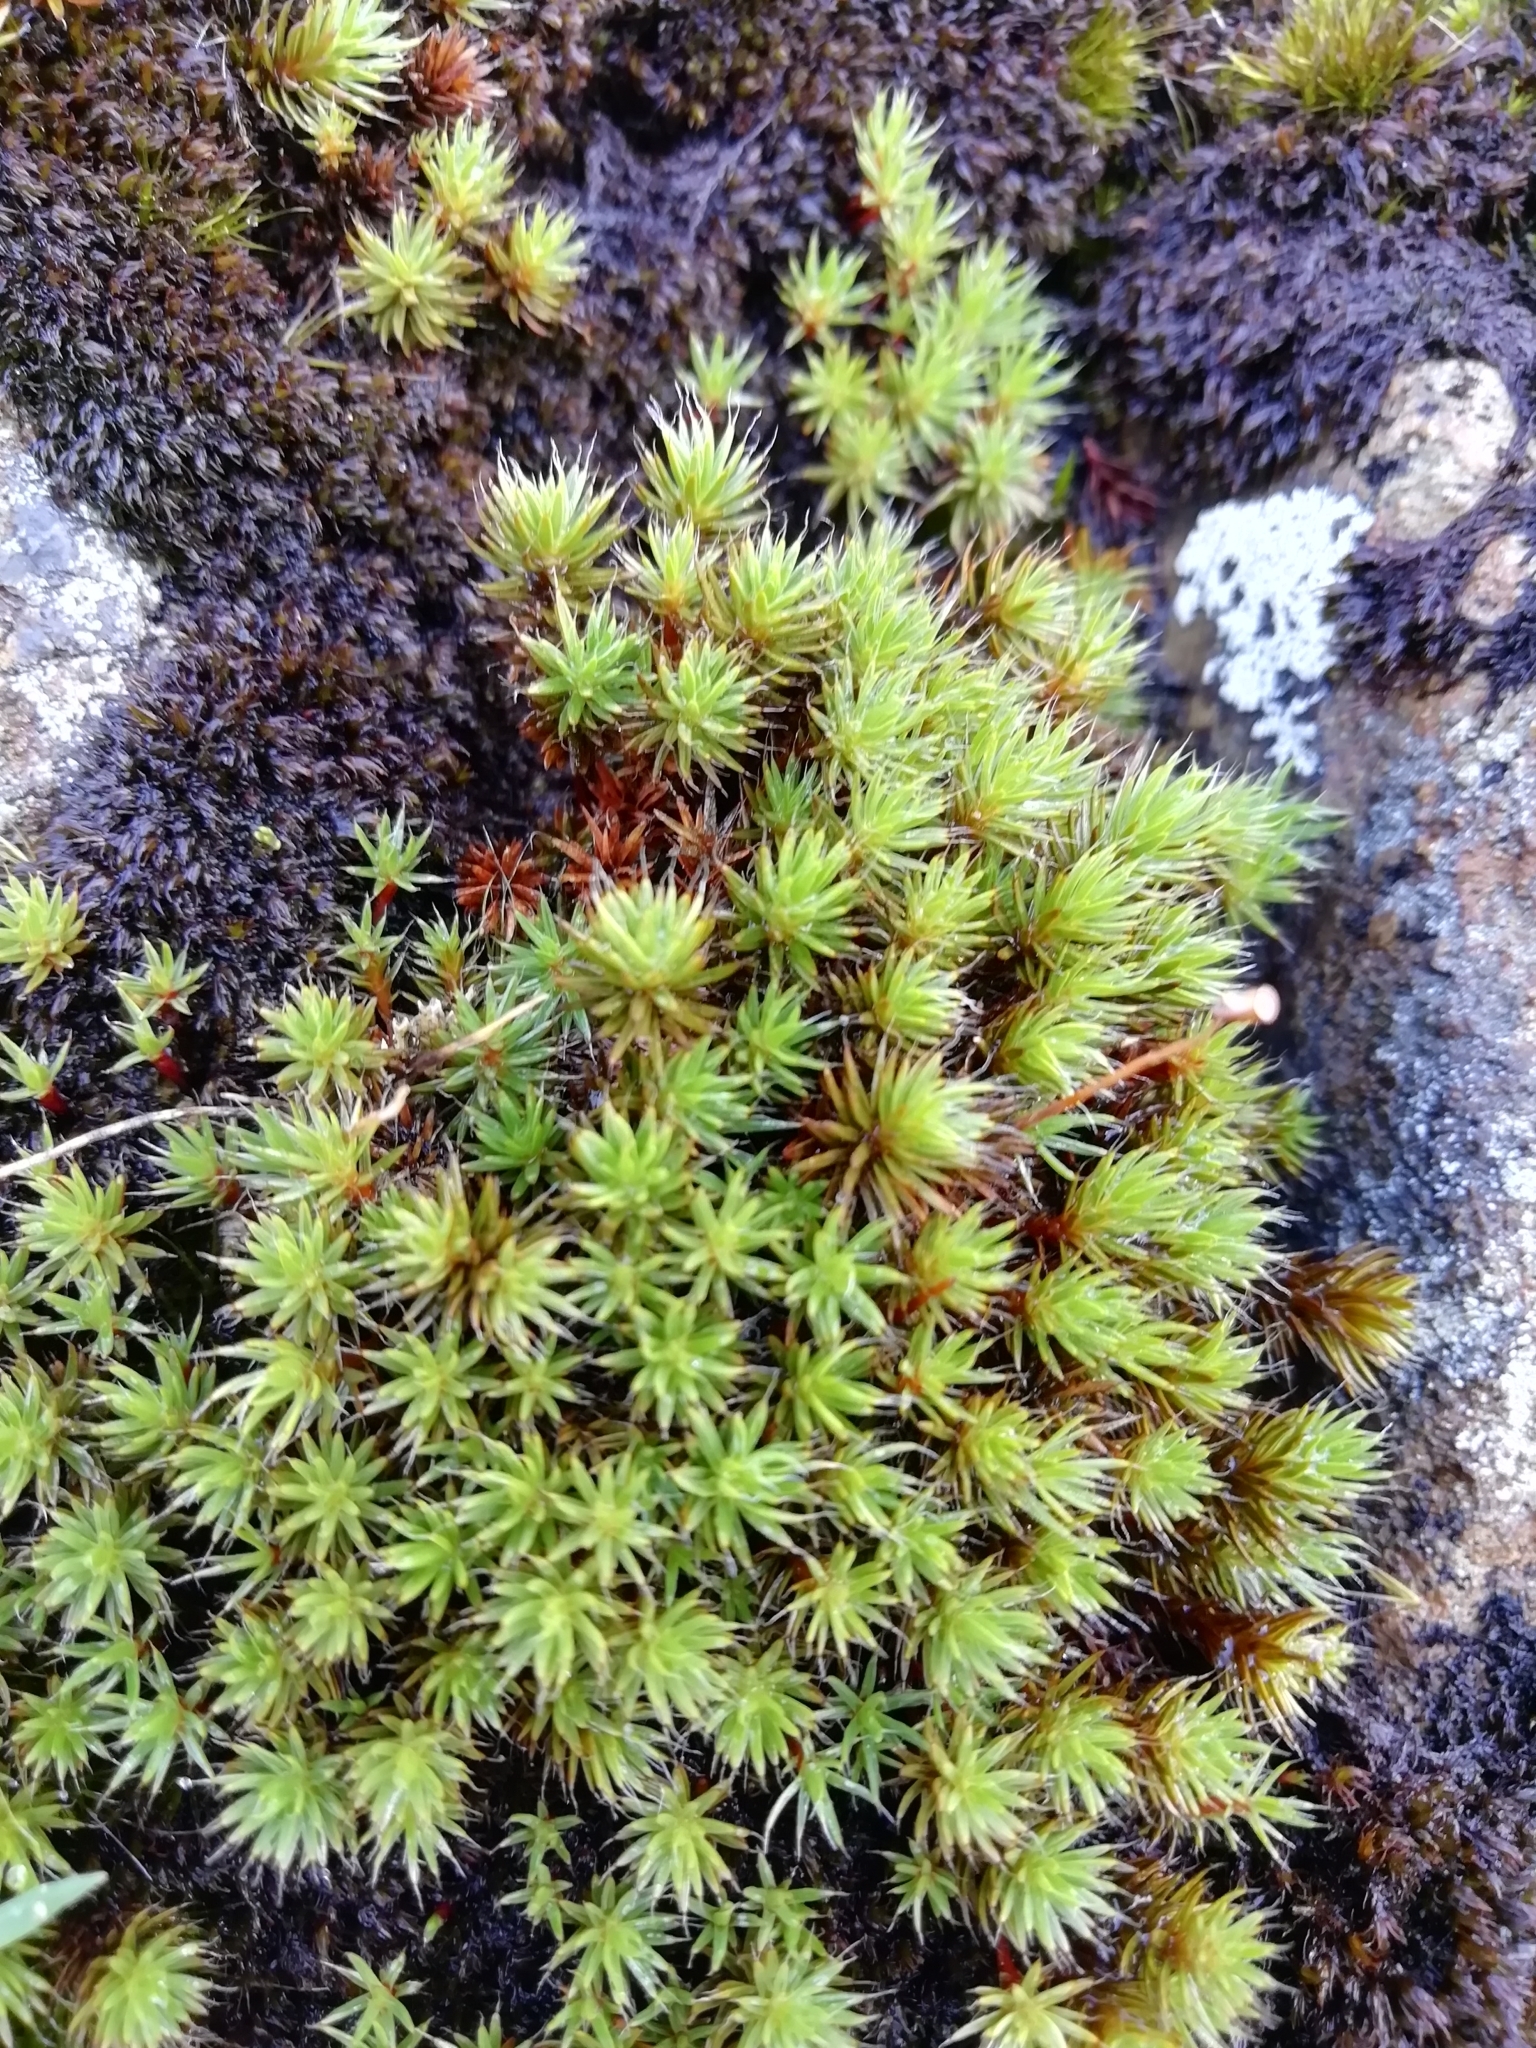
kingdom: Plantae
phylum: Bryophyta
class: Polytrichopsida
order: Polytrichales
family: Polytrichaceae
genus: Polytrichum
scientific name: Polytrichum piliferum
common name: Bristly haircap
